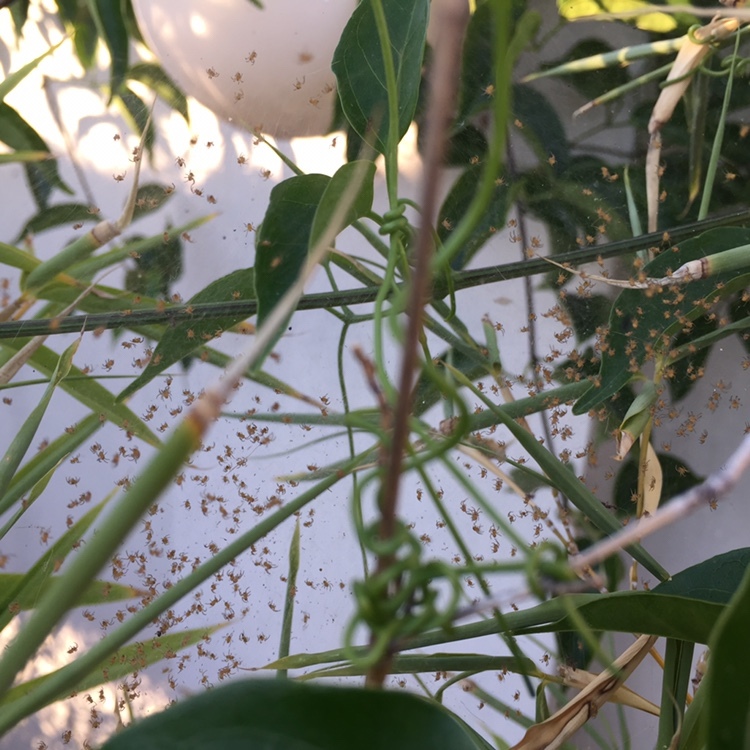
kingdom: Animalia
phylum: Arthropoda
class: Arachnida
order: Araneae
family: Araneidae
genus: Argiope
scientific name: Argiope argentata
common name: Orb weavers
